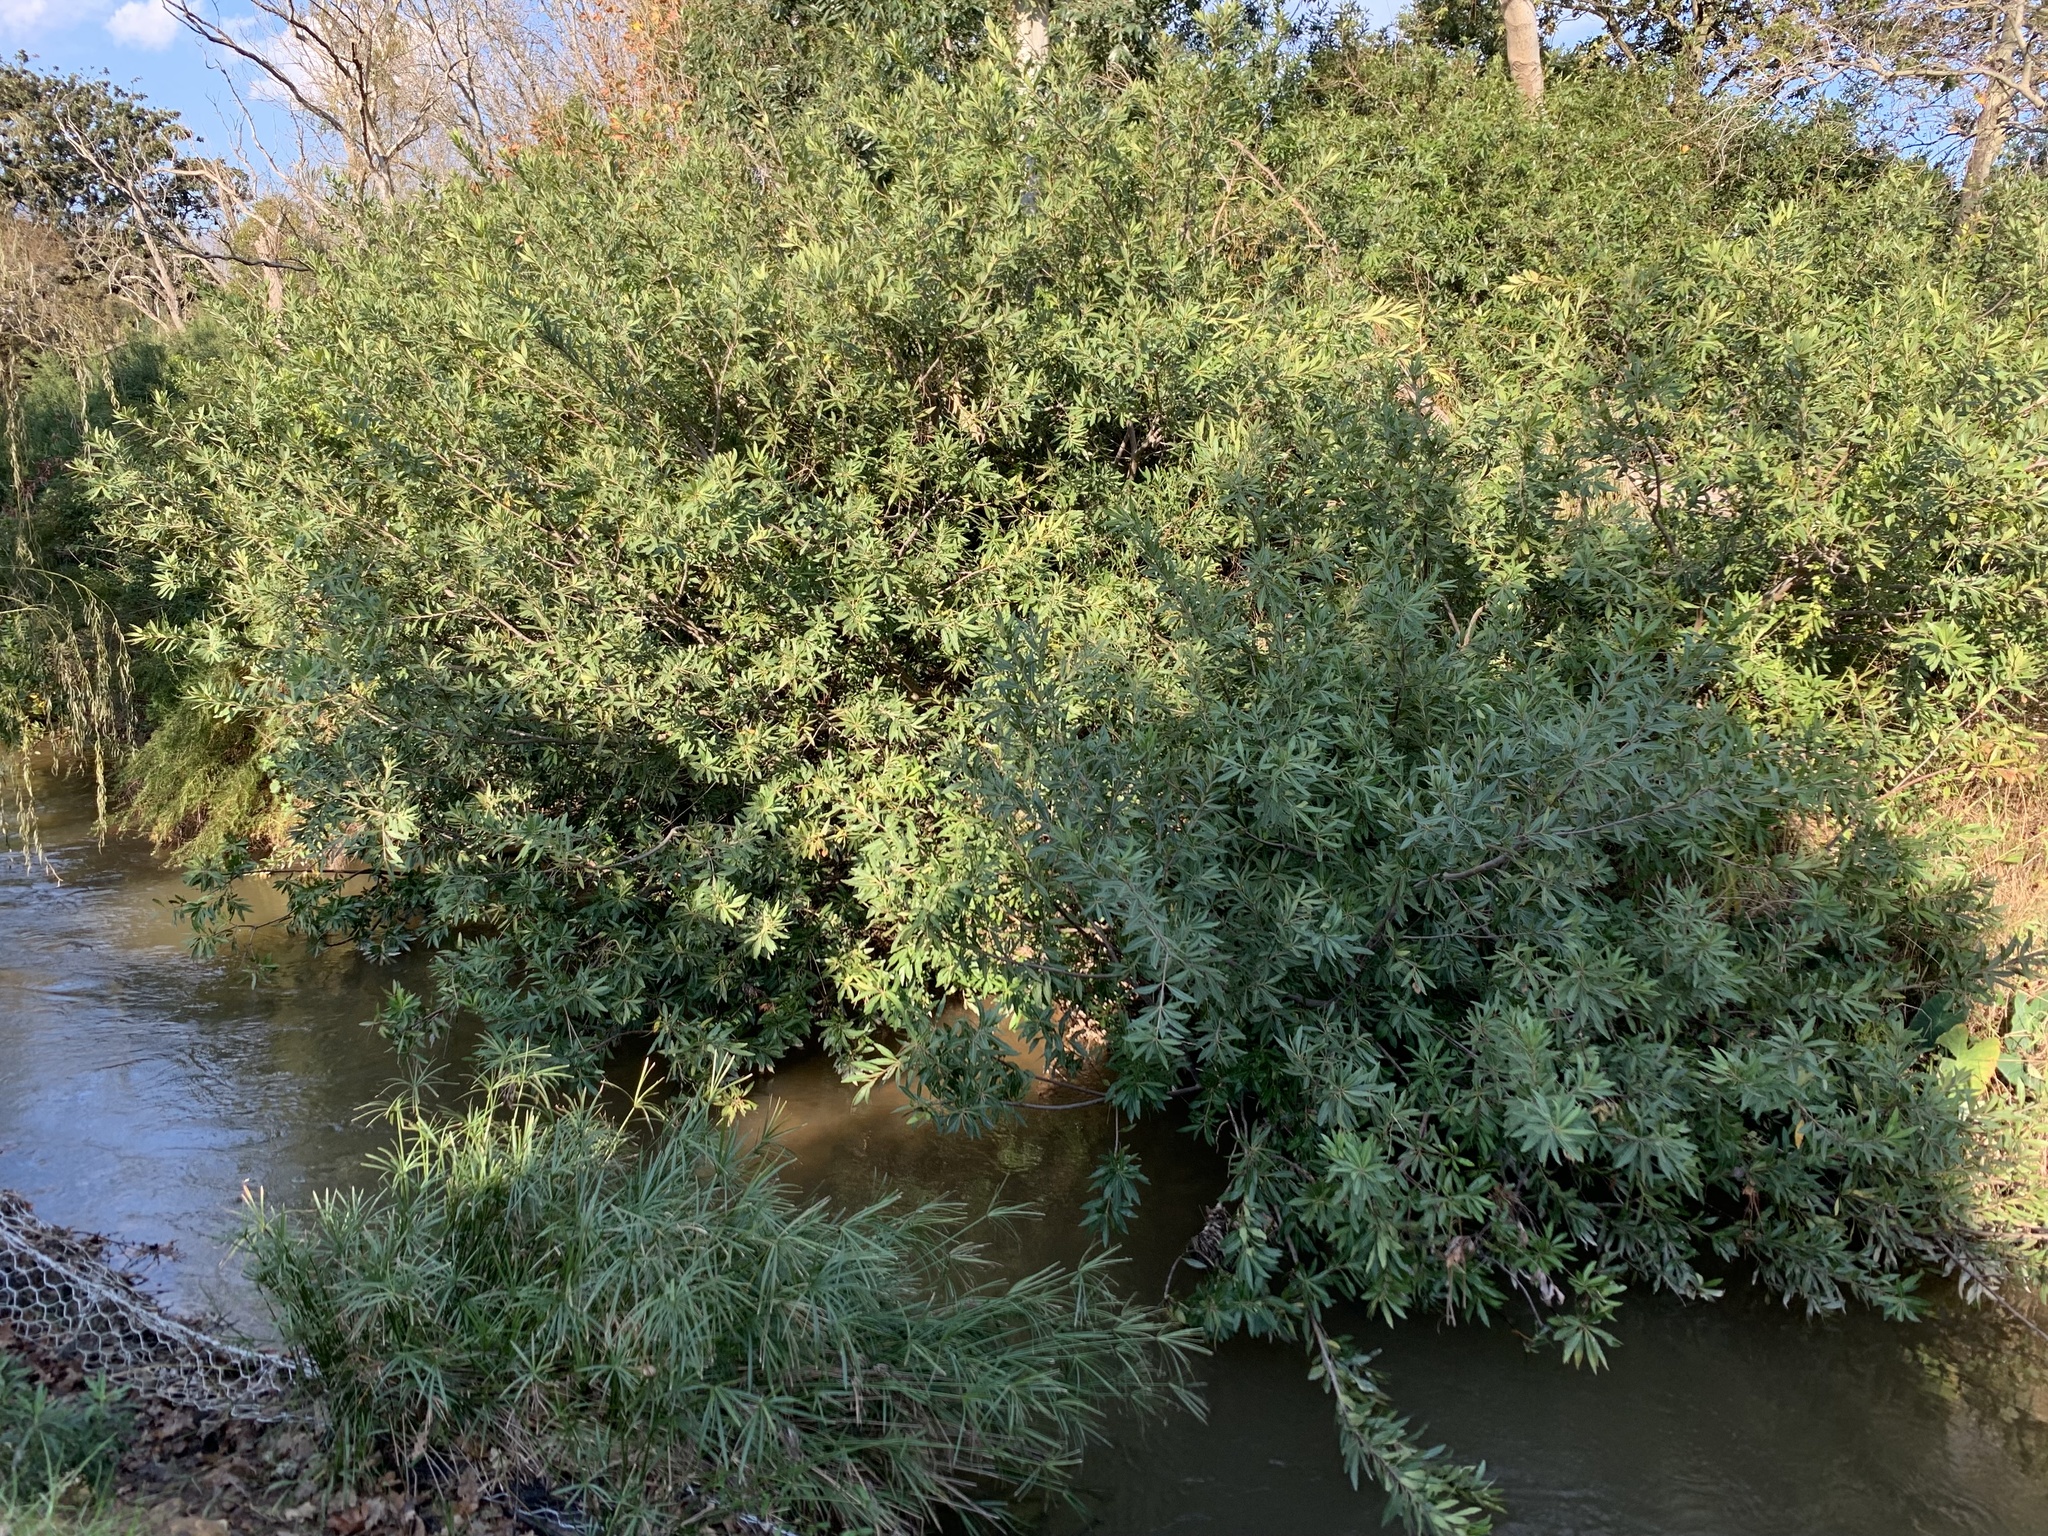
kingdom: Plantae
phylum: Tracheophyta
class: Magnoliopsida
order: Proteales
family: Proteaceae
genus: Brabejum
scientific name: Brabejum stellatifolium
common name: Wild almond
